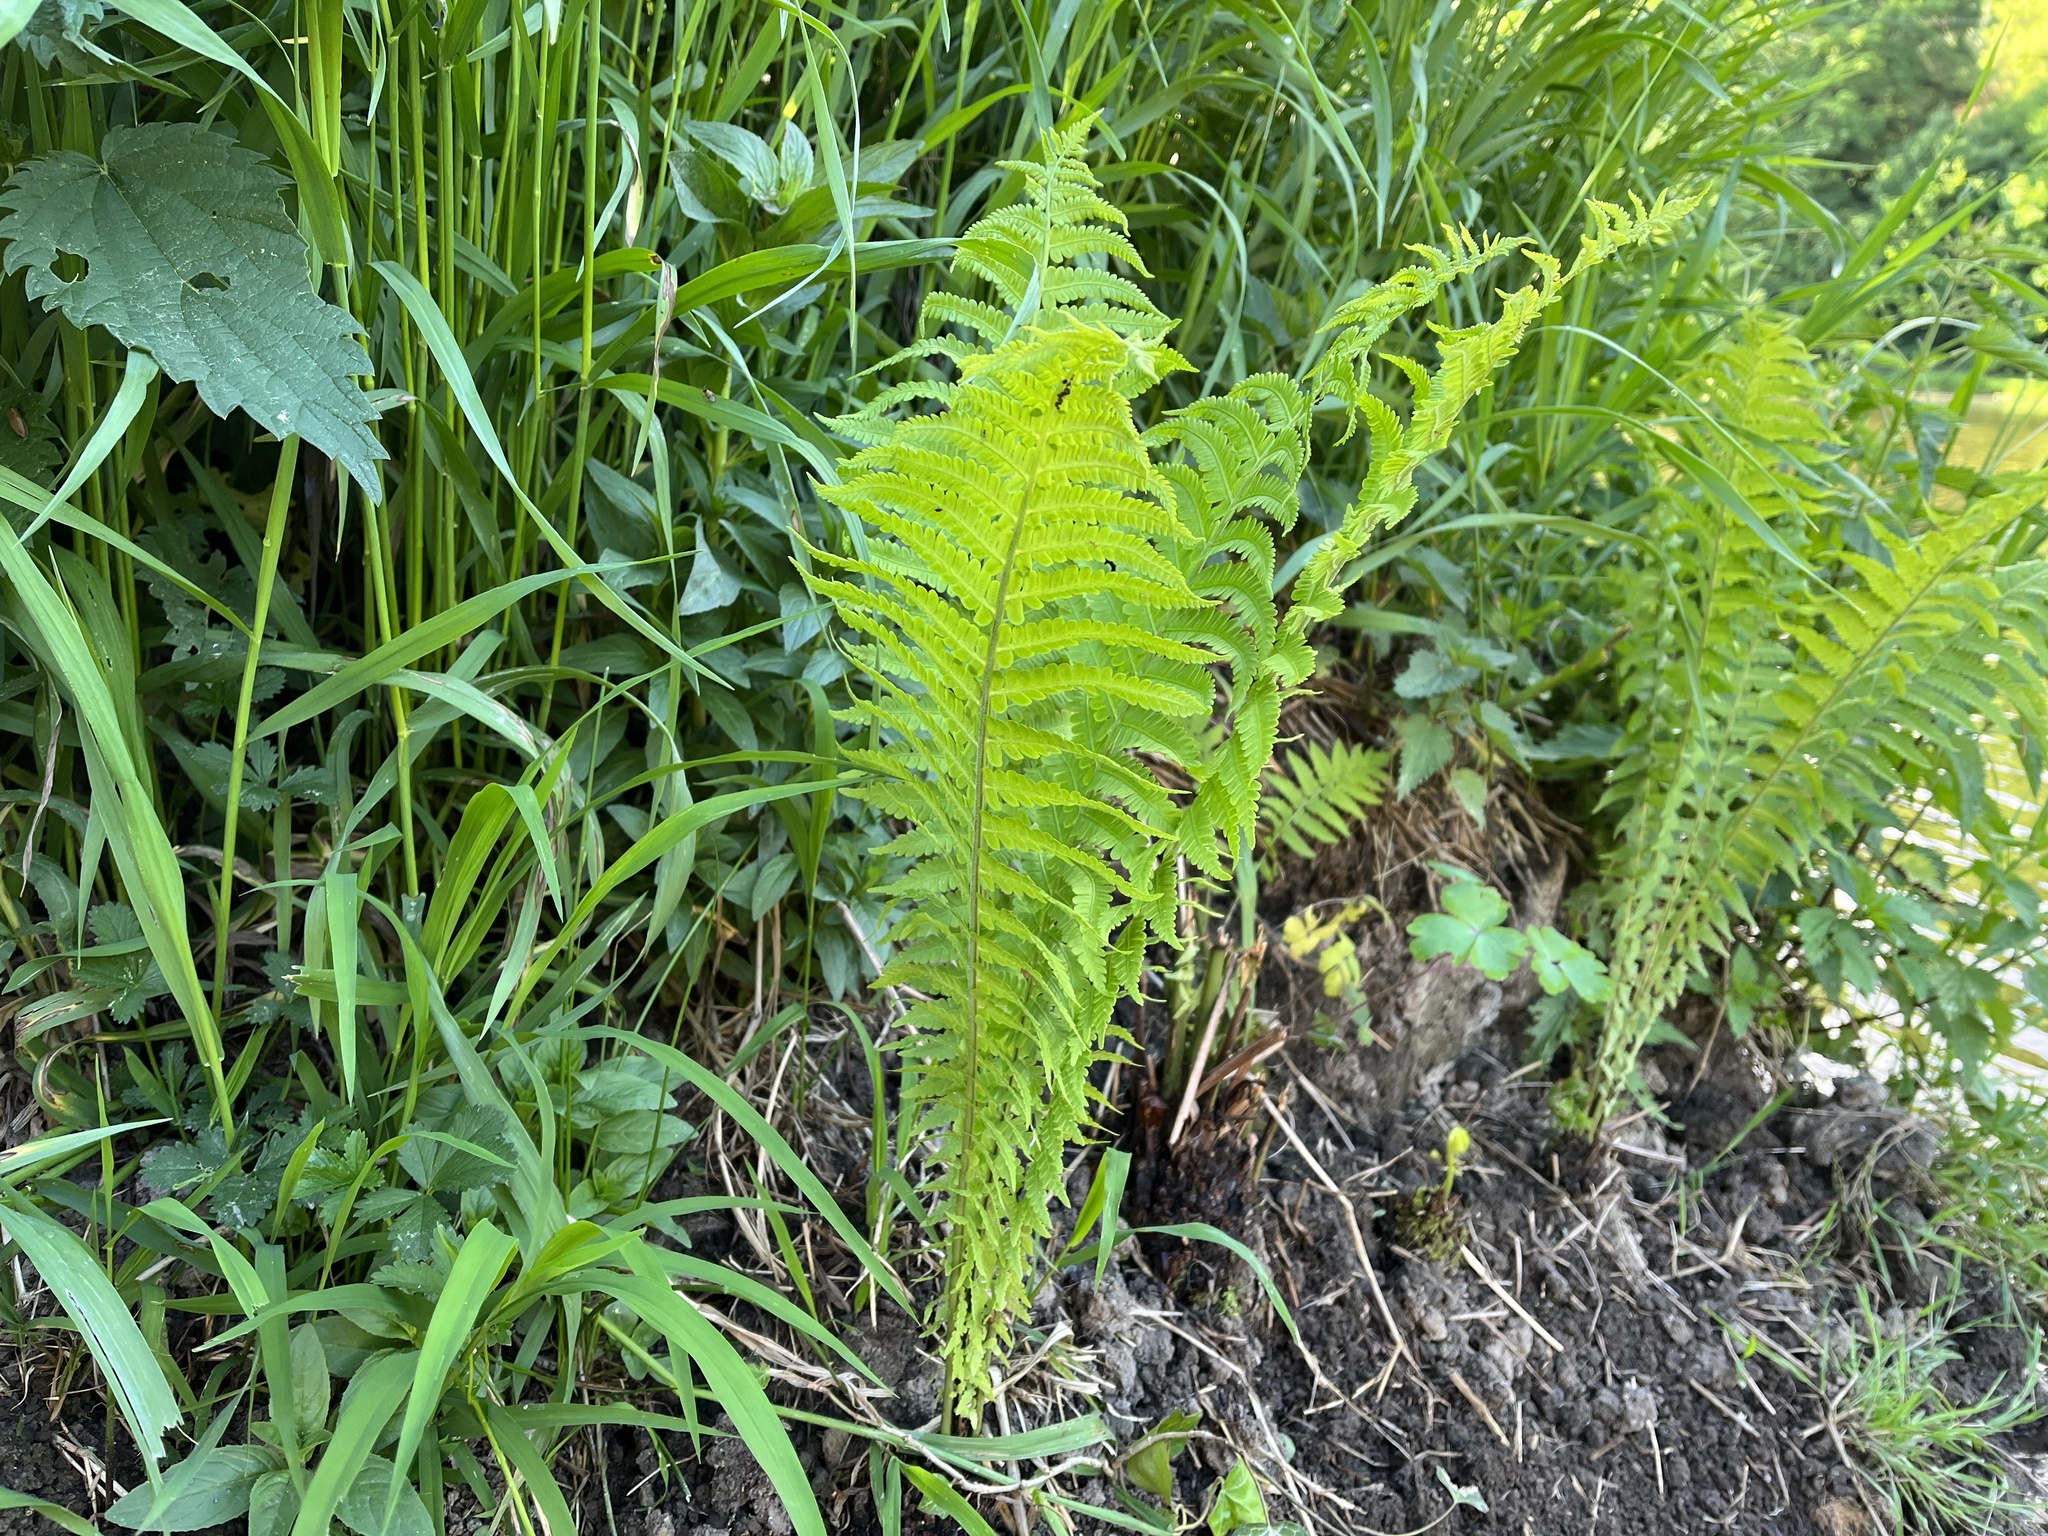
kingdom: Plantae
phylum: Tracheophyta
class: Polypodiopsida
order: Polypodiales
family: Onocleaceae
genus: Matteuccia
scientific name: Matteuccia struthiopteris
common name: Ostrich fern
